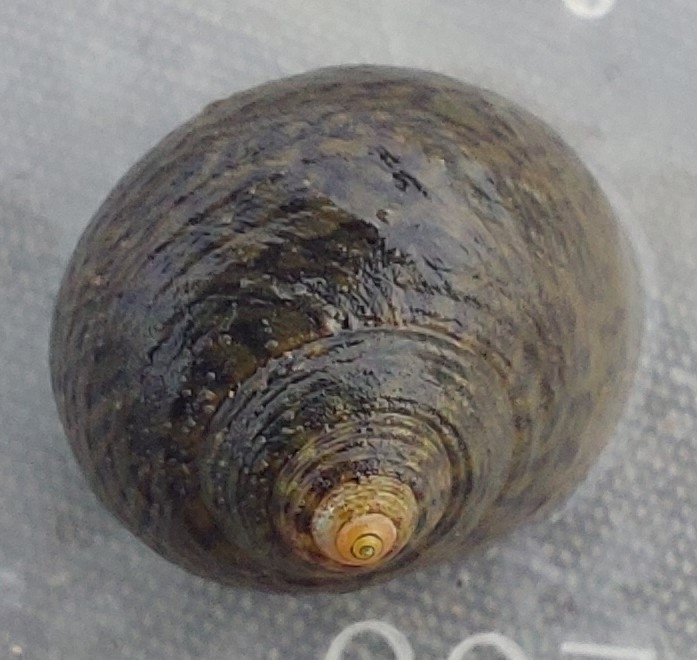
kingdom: Animalia
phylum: Mollusca
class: Gastropoda
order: Trochida
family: Trochidae
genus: Phorcus
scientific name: Phorcus lineatus
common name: Toothed top shell
